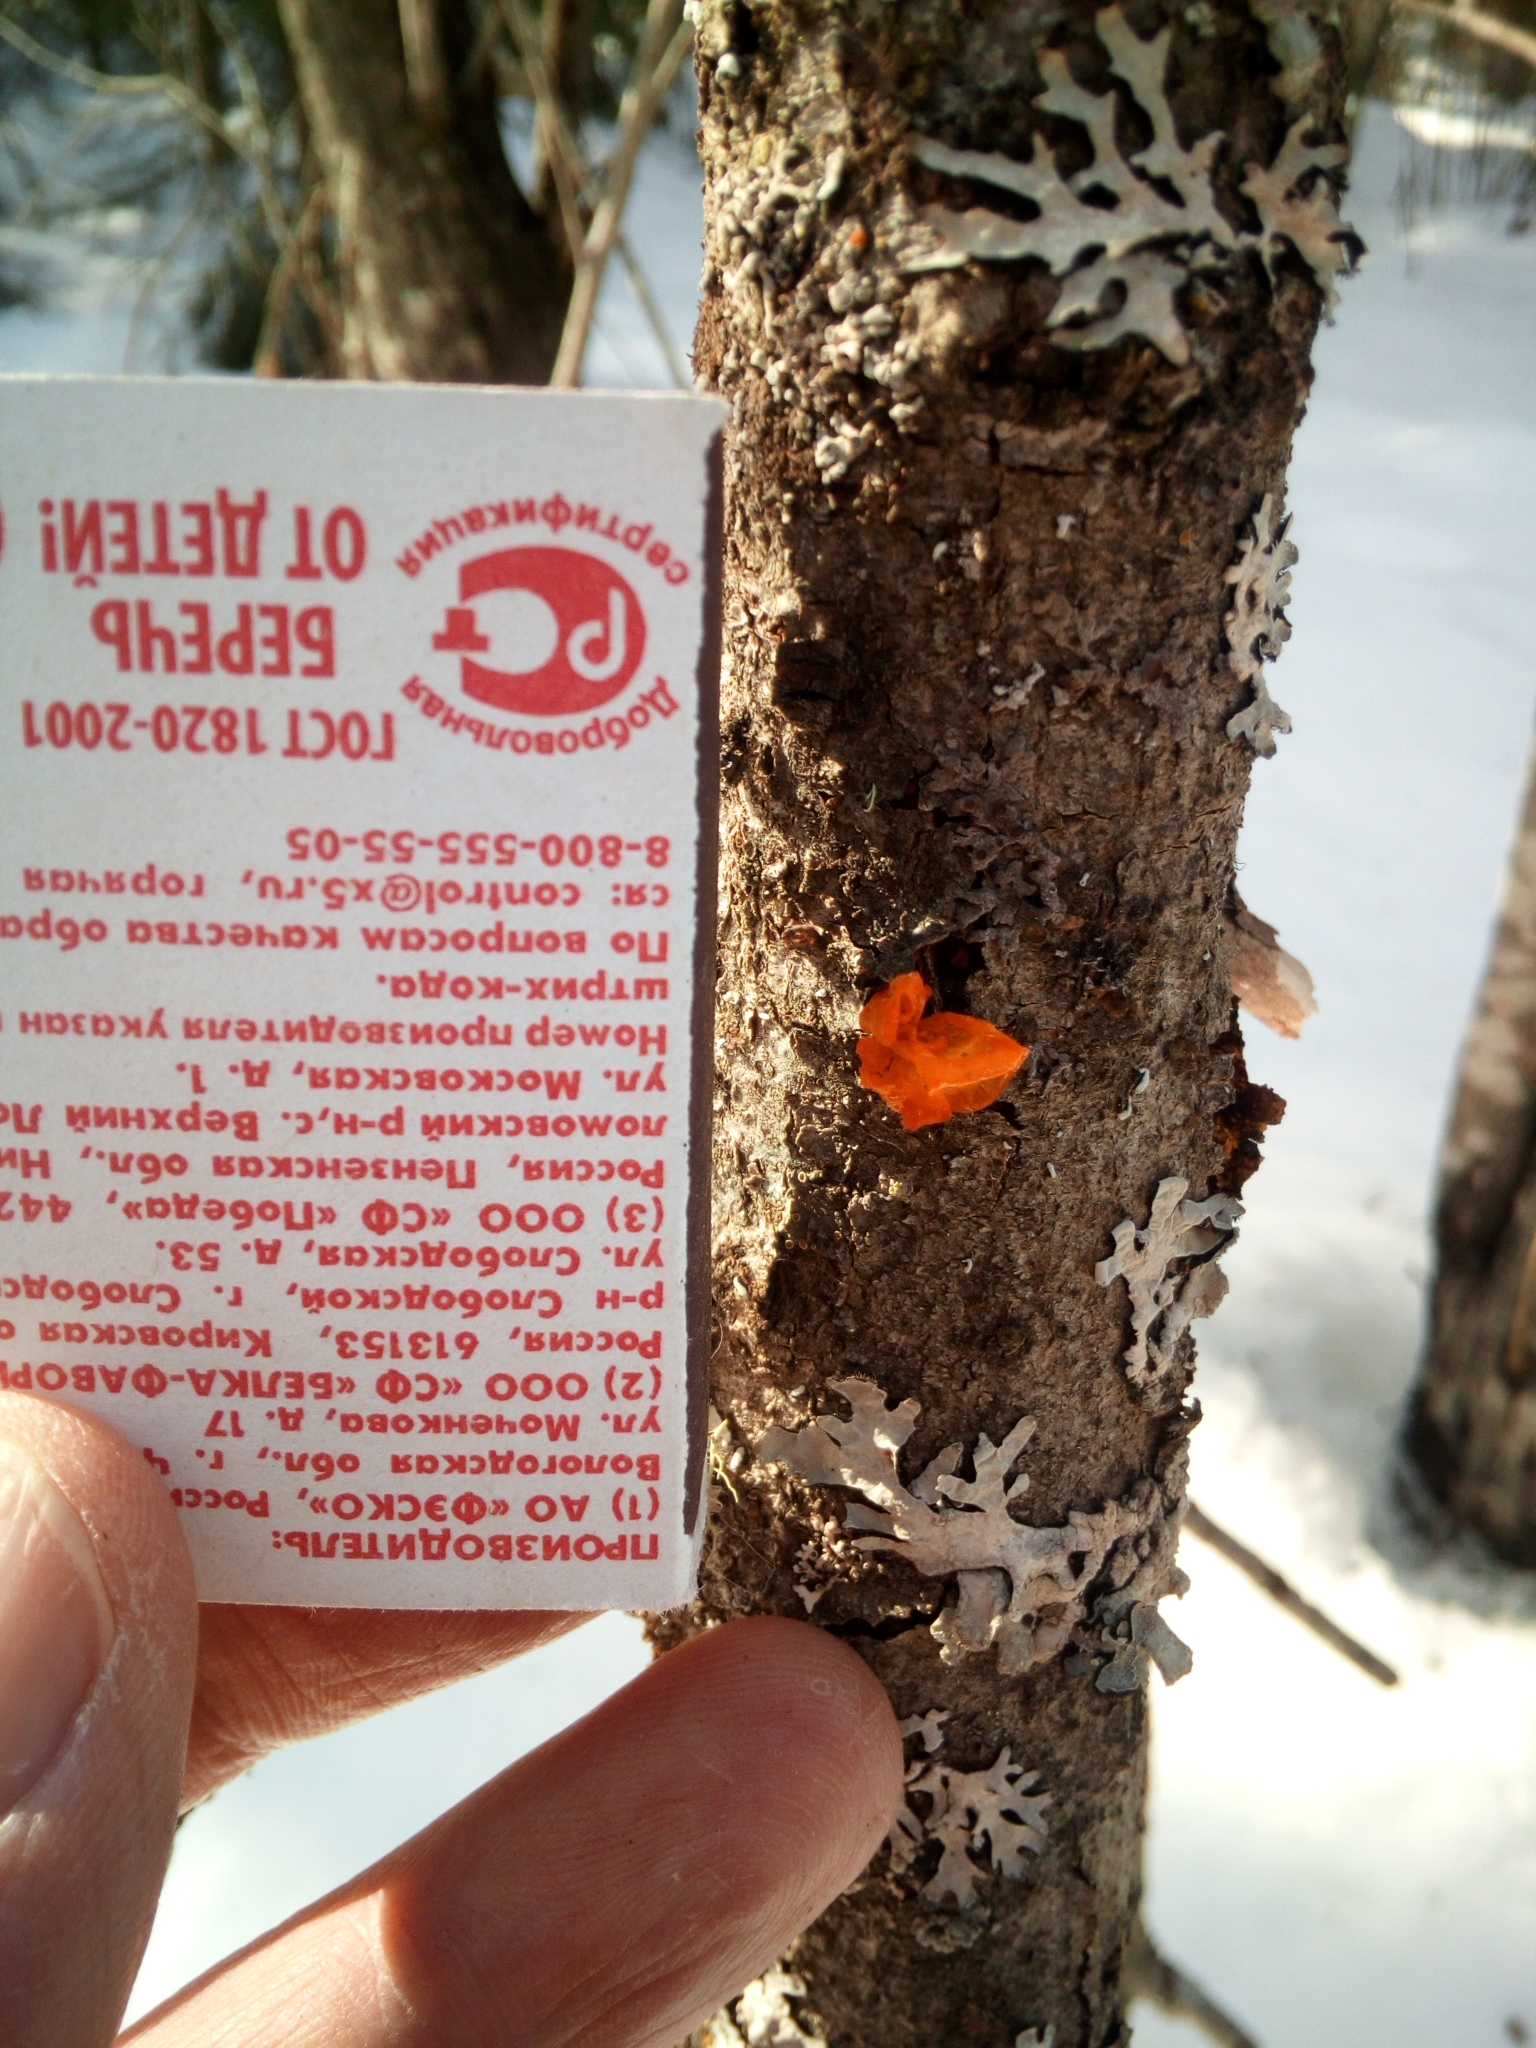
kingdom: Fungi
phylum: Basidiomycota
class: Tremellomycetes
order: Tremellales
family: Tremellaceae
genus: Tremella
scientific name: Tremella mesenterica
